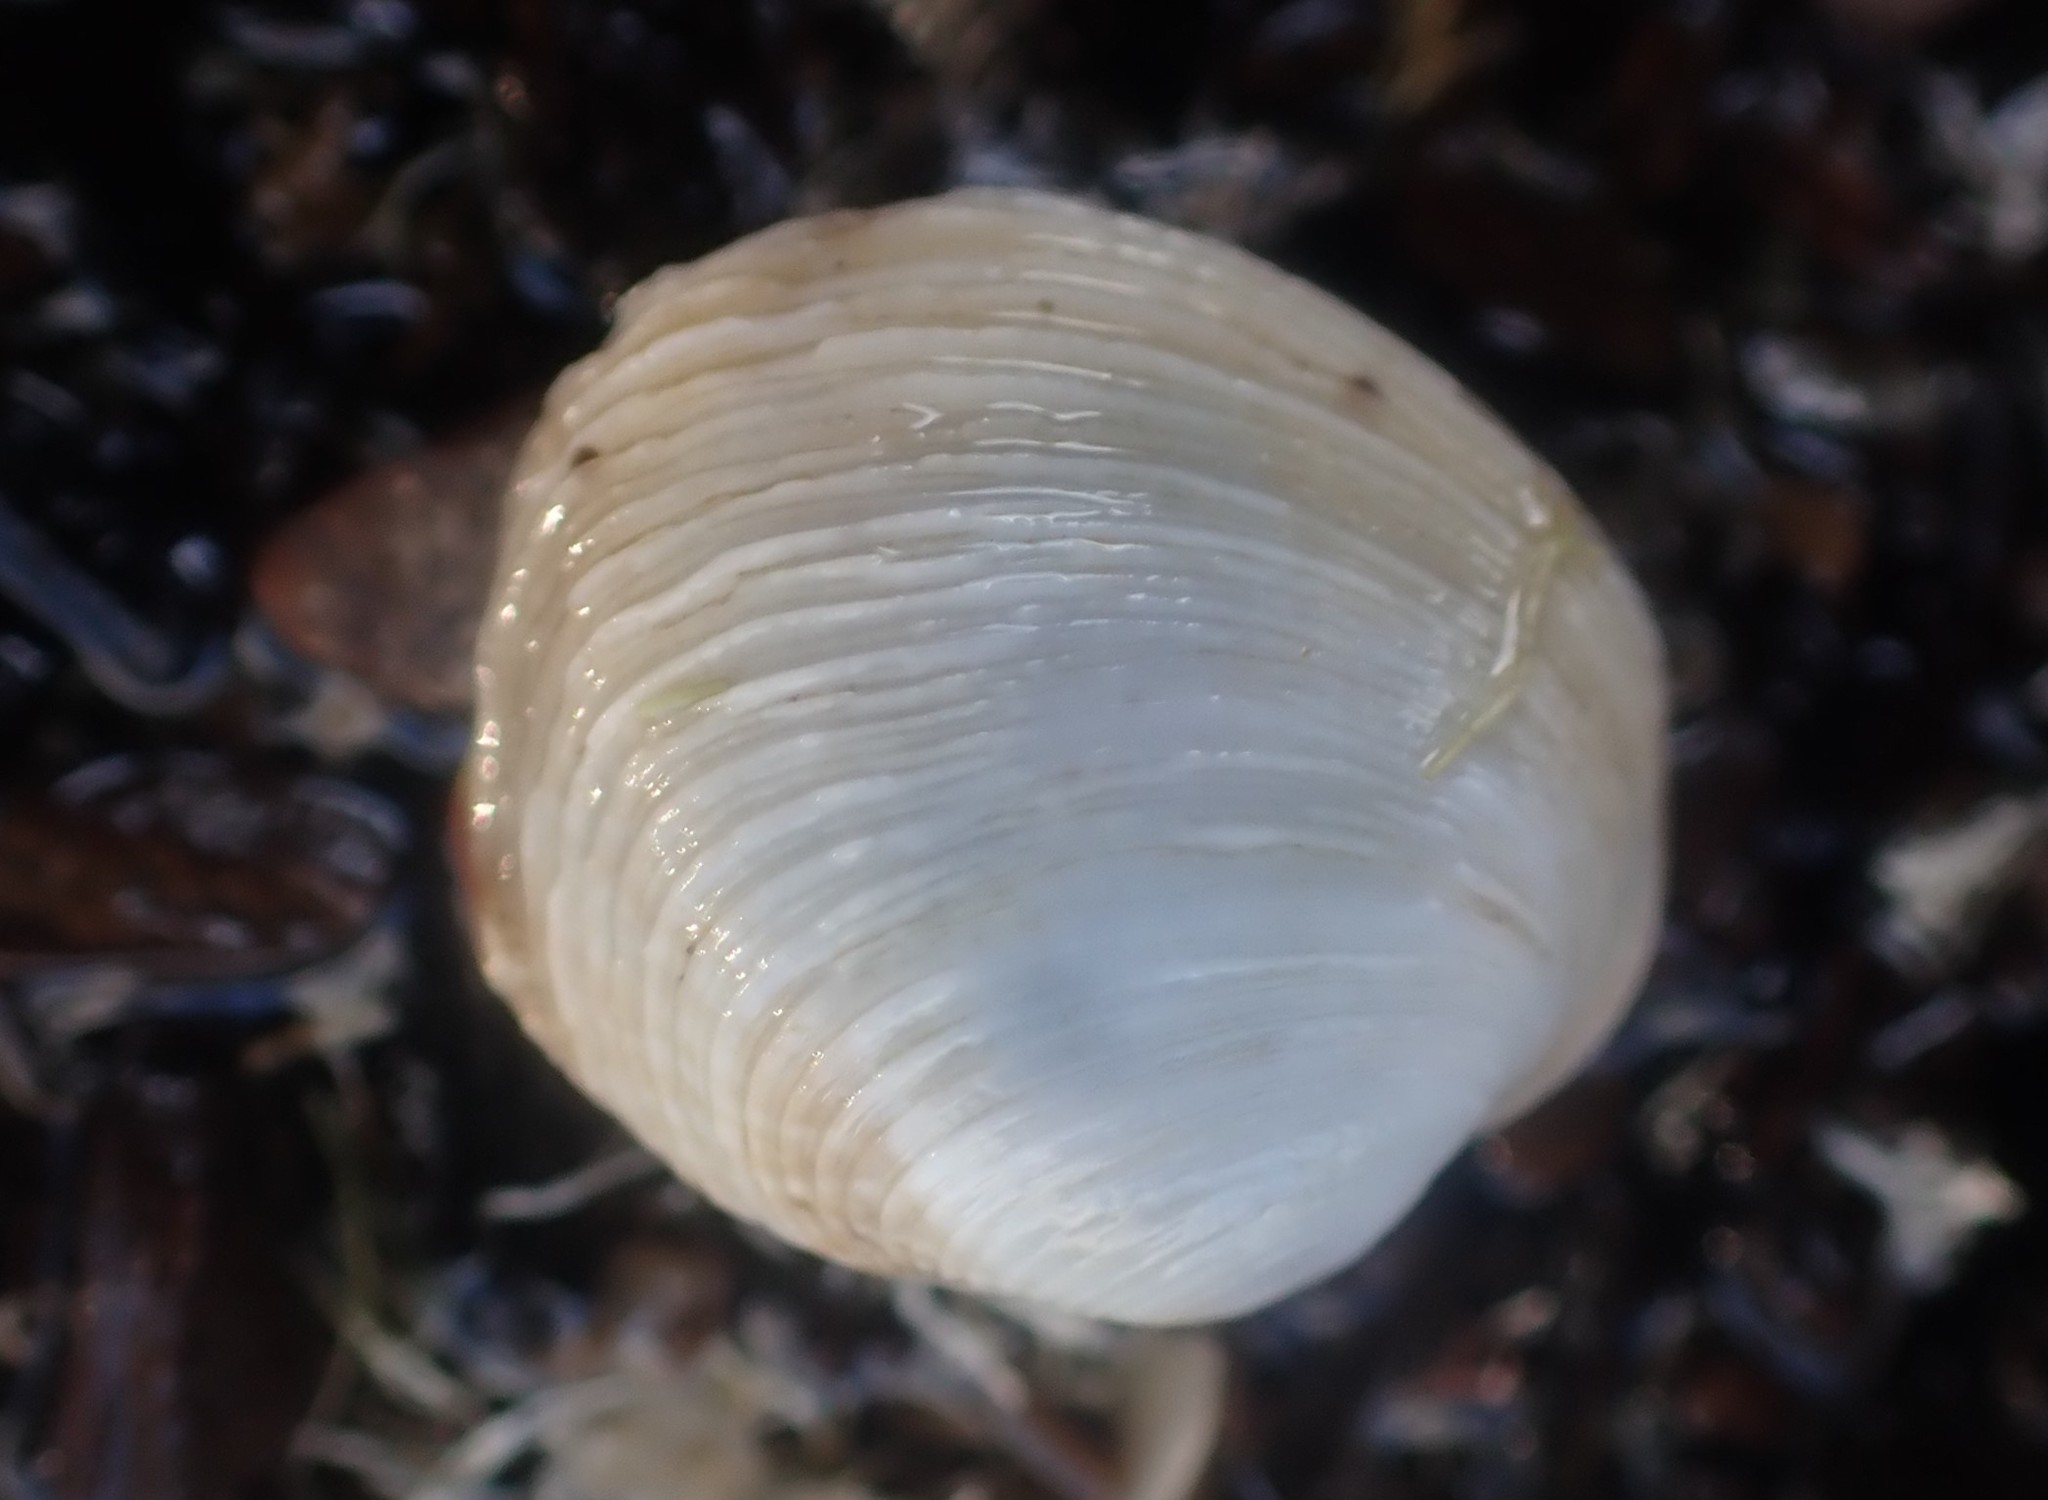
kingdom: Animalia
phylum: Mollusca
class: Bivalvia
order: Venerida
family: Veneridae
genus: Irus
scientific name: Irus reflexus
